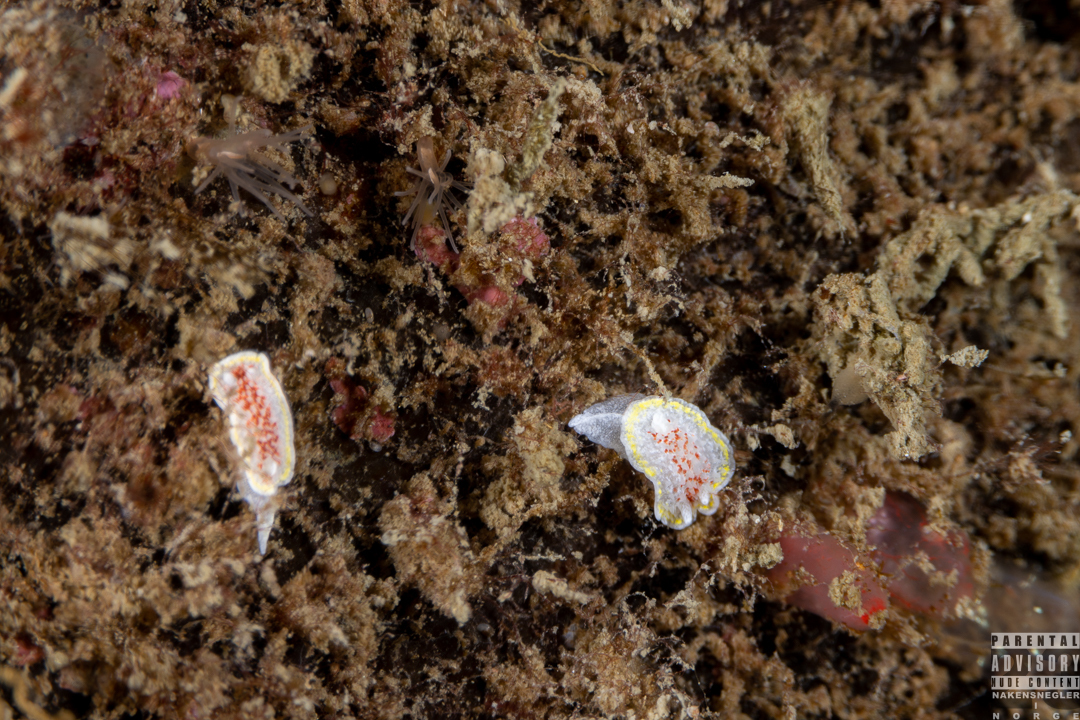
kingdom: Animalia
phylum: Mollusca
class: Gastropoda
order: Nudibranchia
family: Calycidorididae
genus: Diaphorodoris
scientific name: Diaphorodoris luteocincta
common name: Fried egg nudibranch
